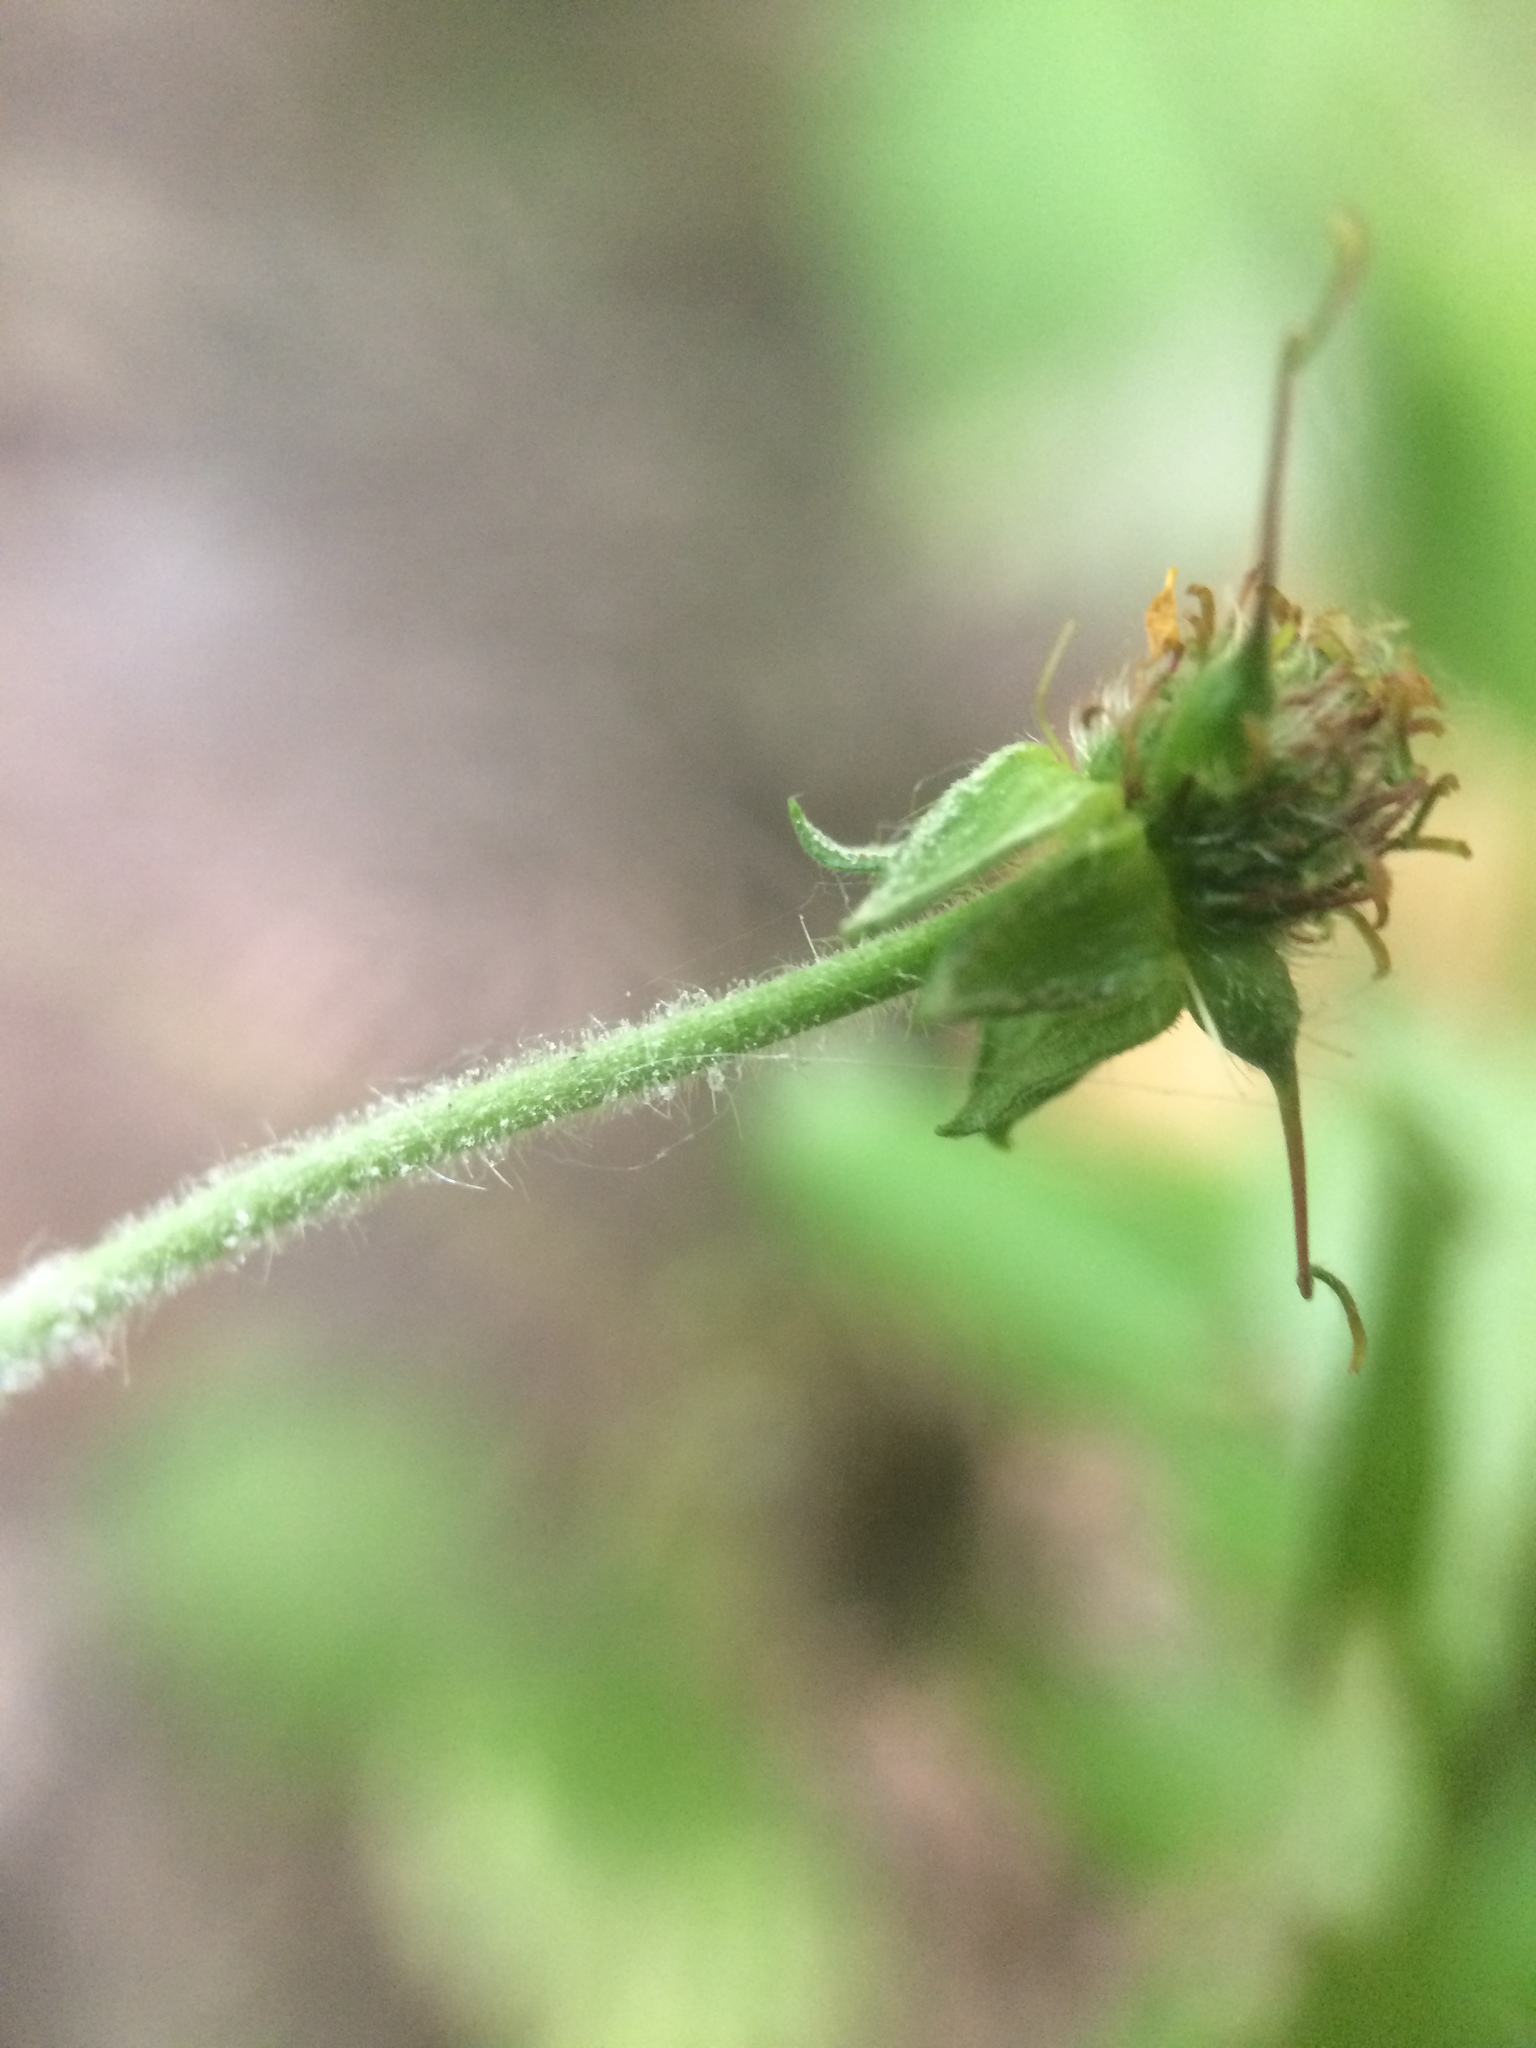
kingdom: Plantae
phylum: Tracheophyta
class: Magnoliopsida
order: Rosales
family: Rosaceae
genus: Geum
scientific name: Geum urbanum
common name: Wood avens
